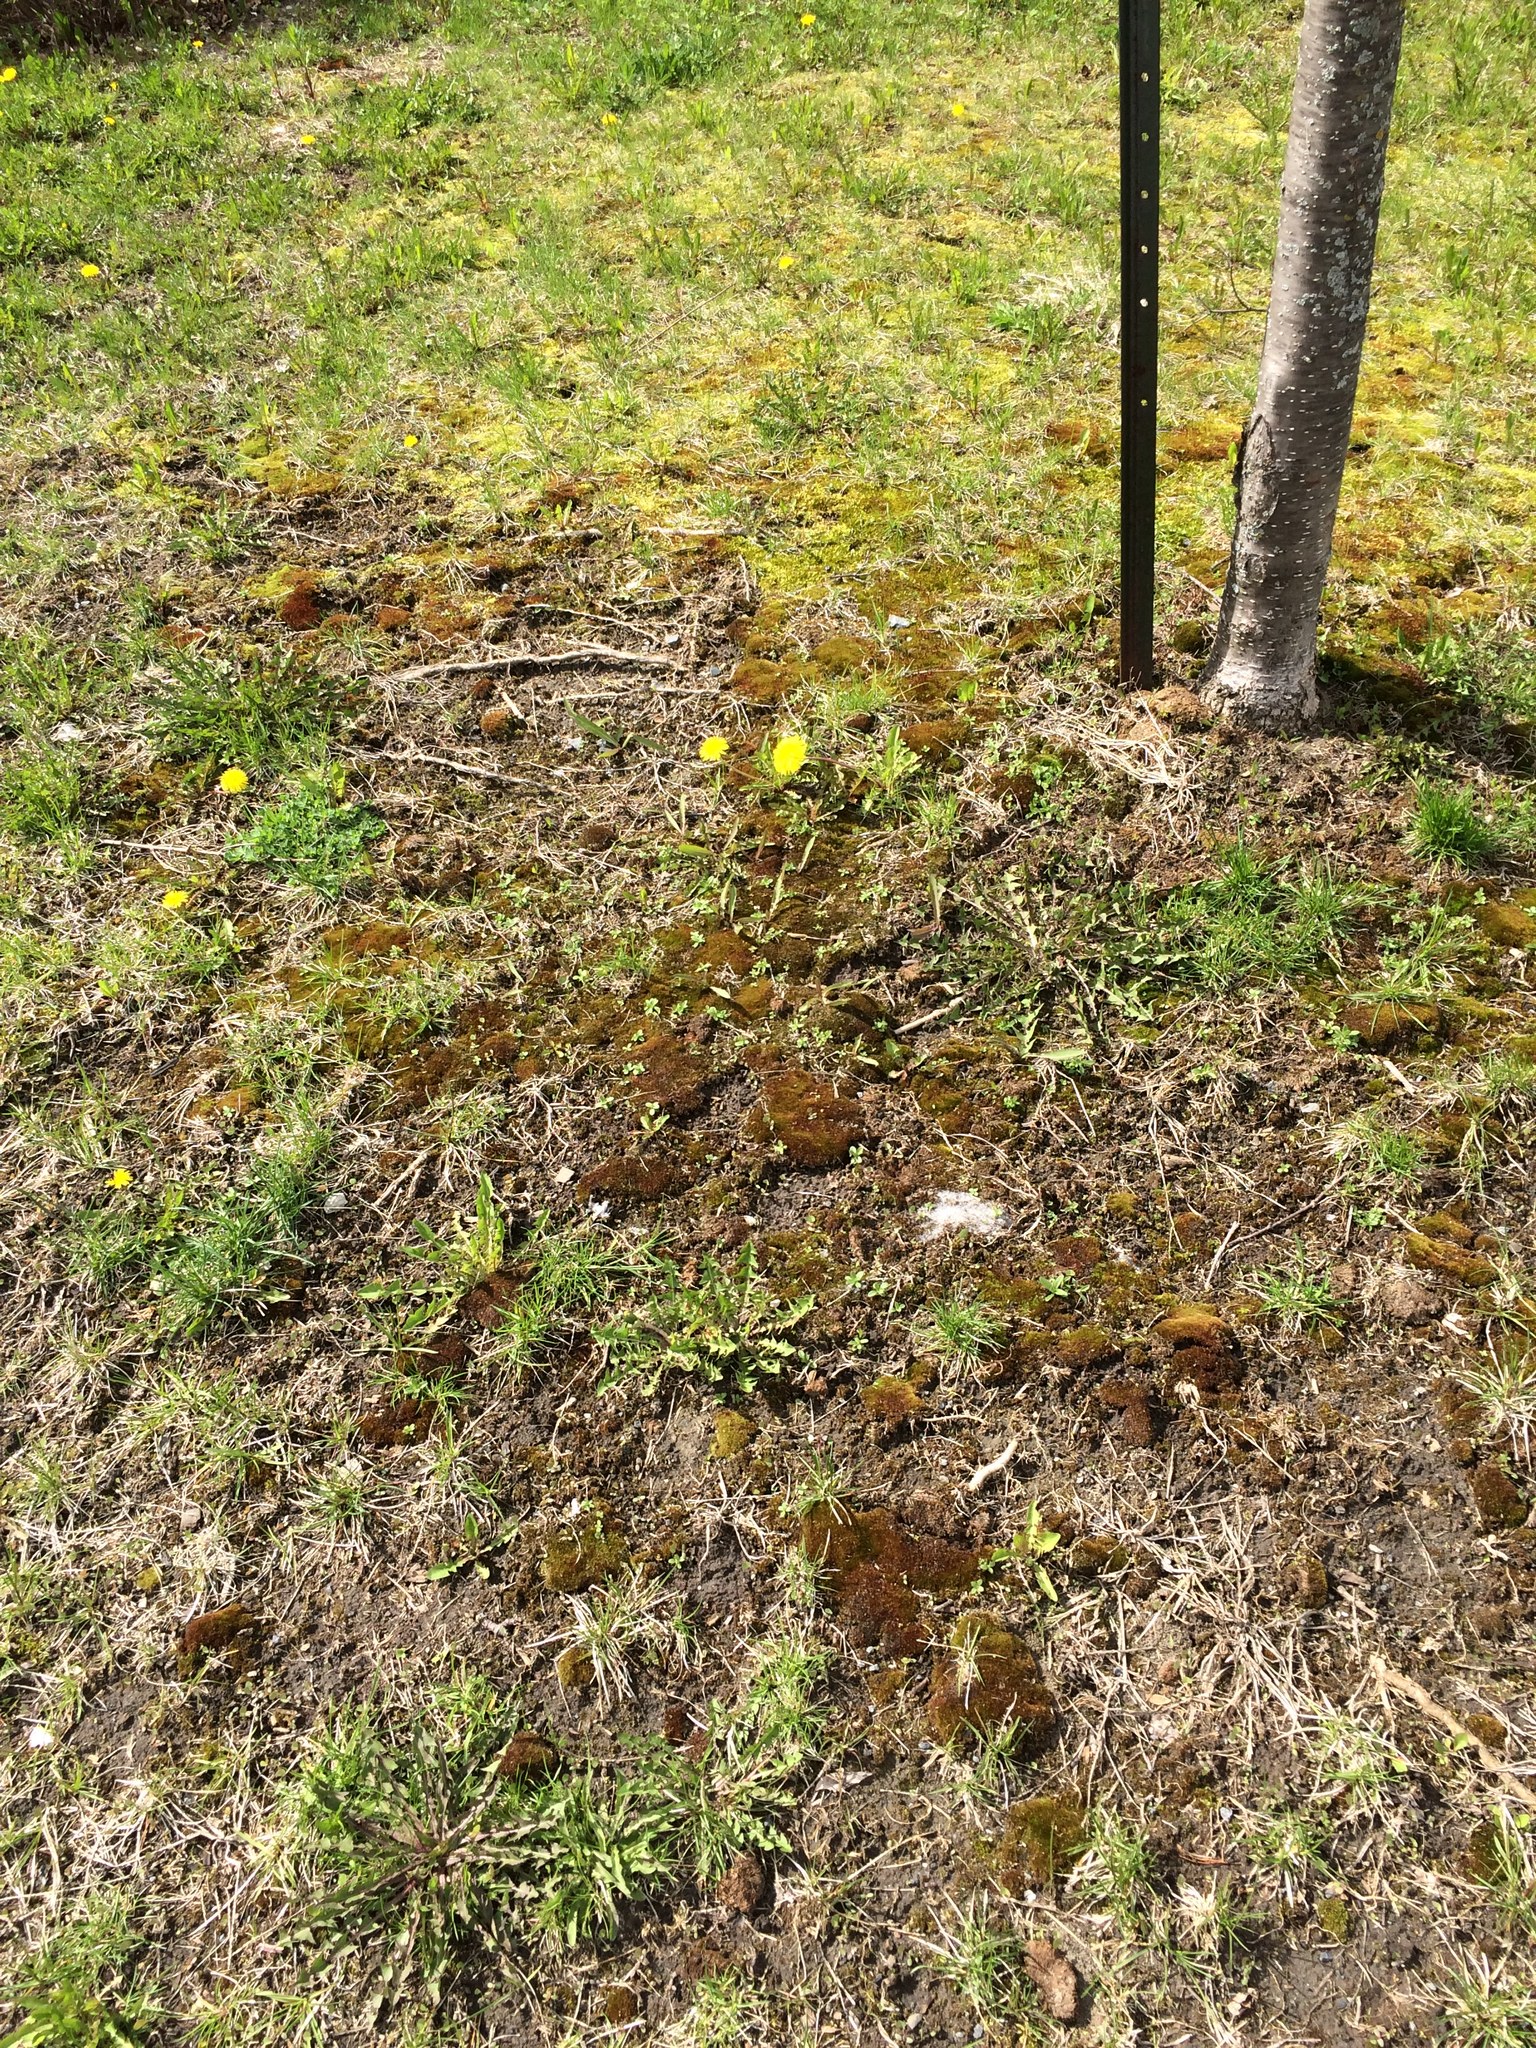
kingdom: Plantae
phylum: Tracheophyta
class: Magnoliopsida
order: Brassicales
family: Brassicaceae
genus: Arabidopsis
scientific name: Arabidopsis thaliana
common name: Thale cress
